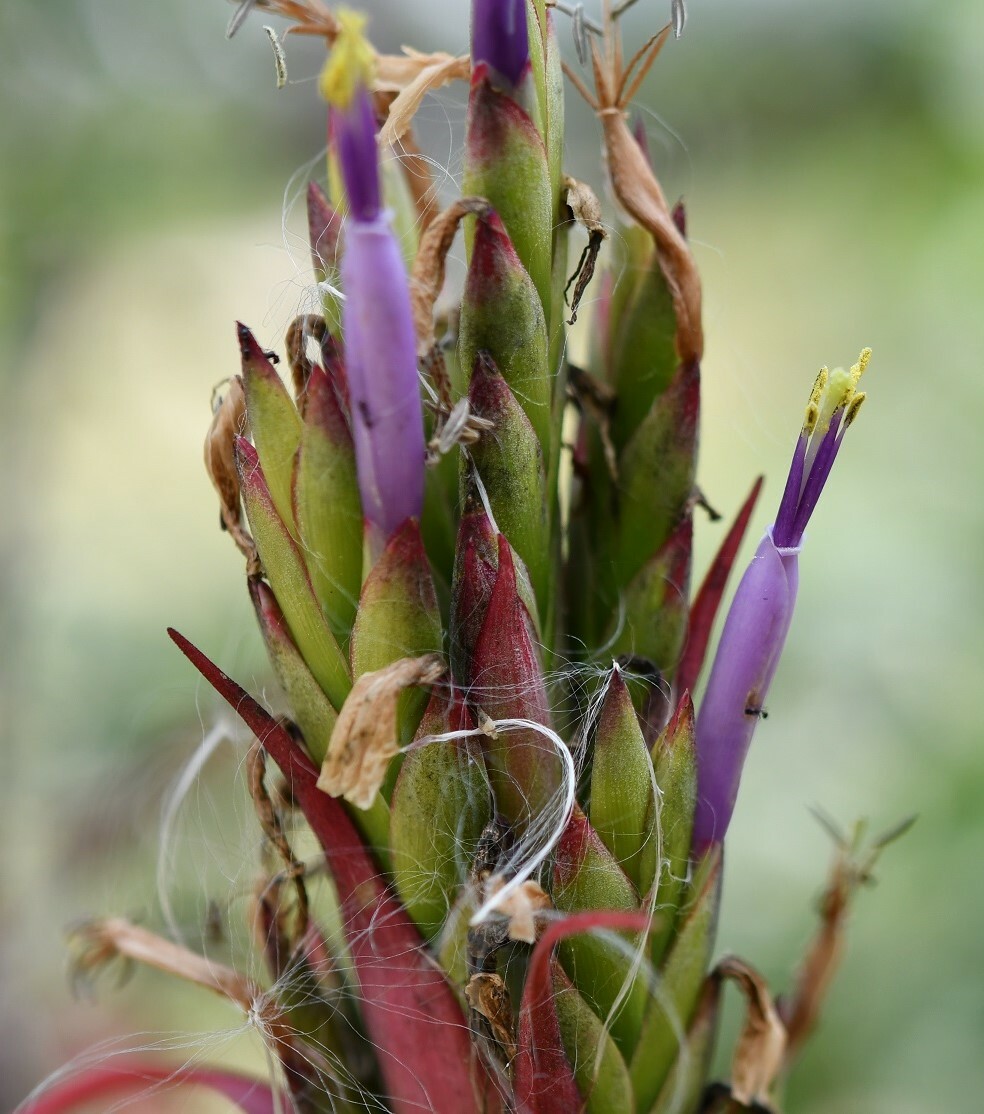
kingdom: Plantae
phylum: Tracheophyta
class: Liliopsida
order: Poales
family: Bromeliaceae
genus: Tillandsia
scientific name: Tillandsia belloensis
